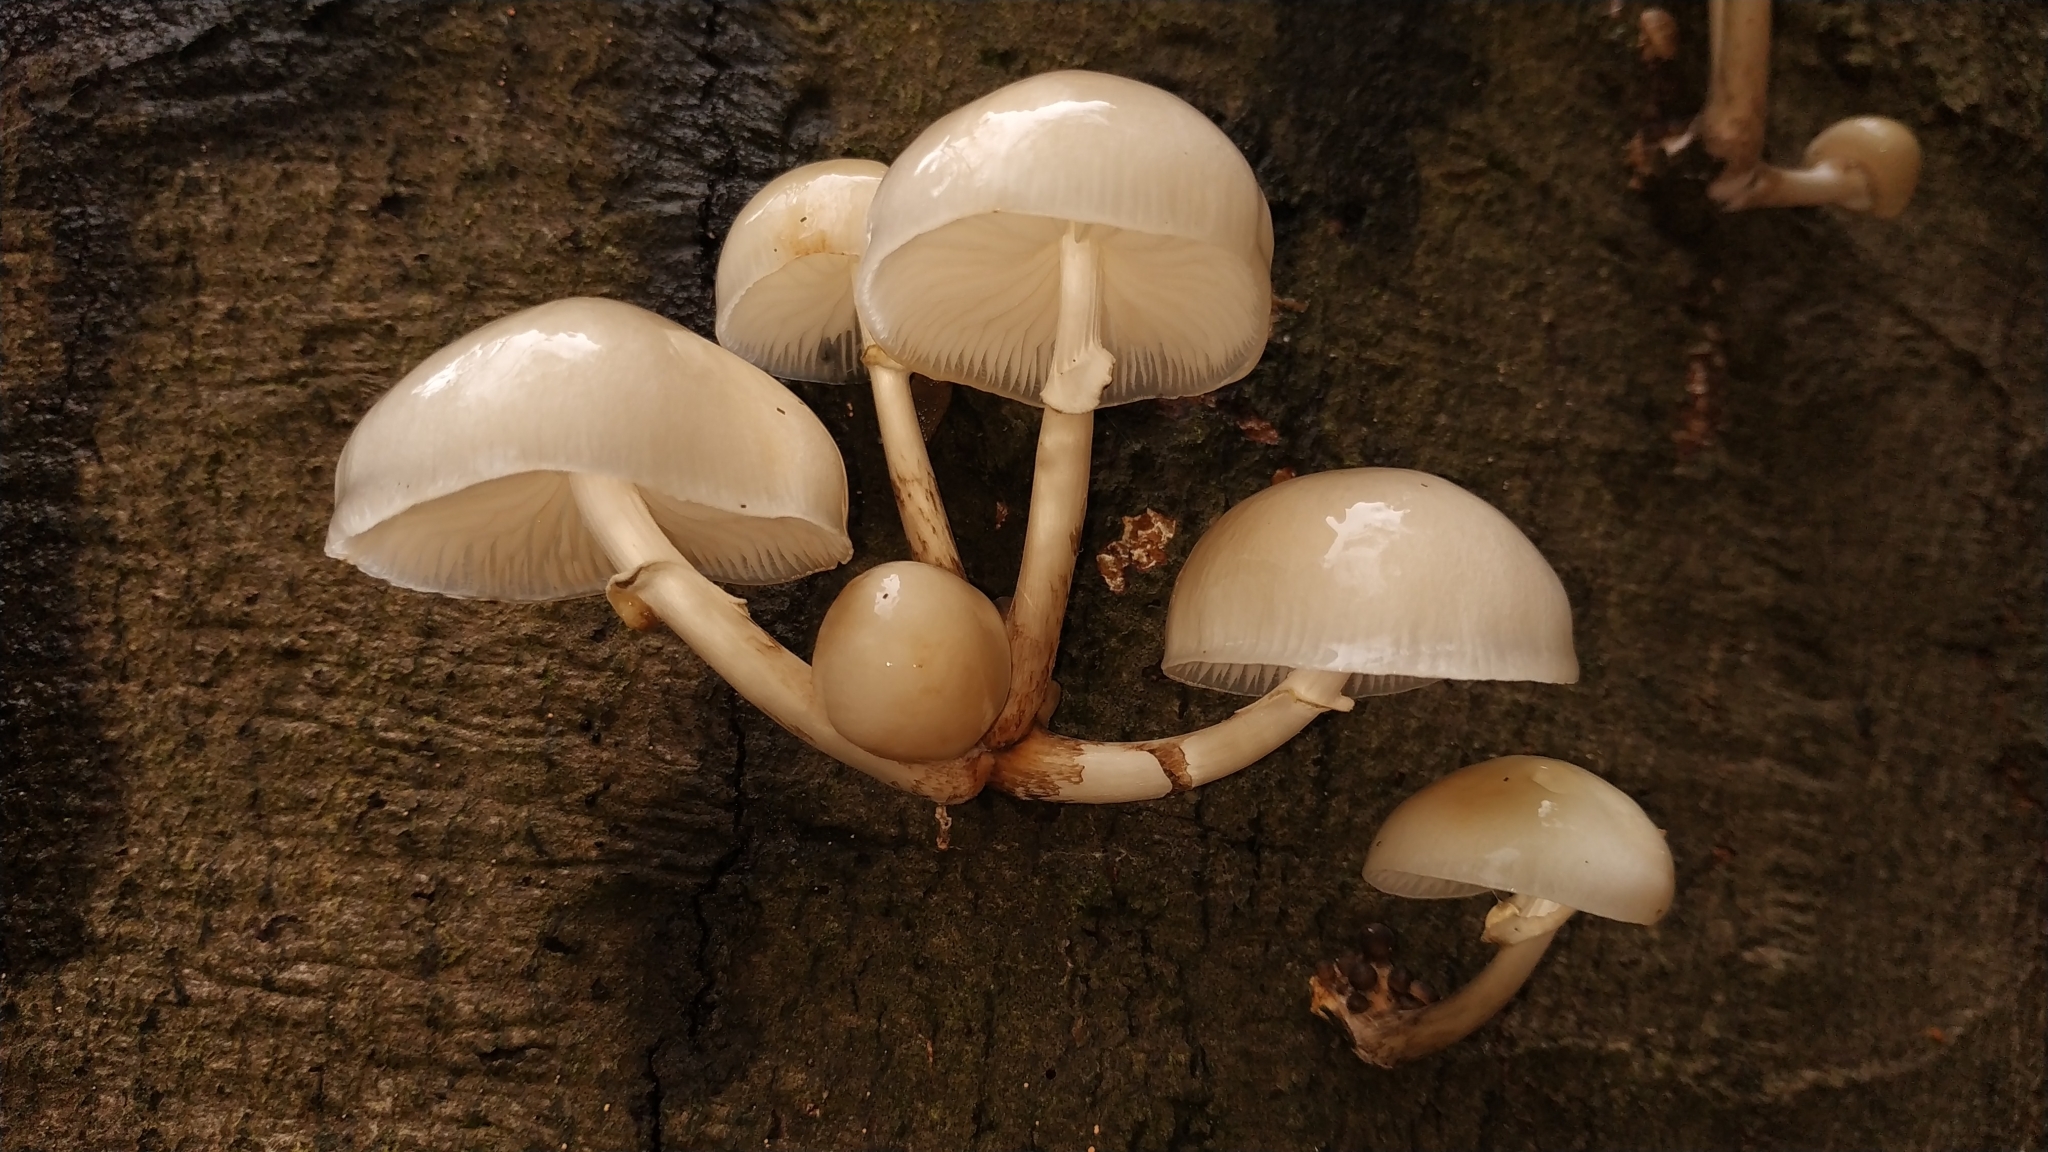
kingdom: Fungi
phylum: Basidiomycota
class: Agaricomycetes
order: Agaricales
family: Physalacriaceae
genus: Mucidula
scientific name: Mucidula mucida
